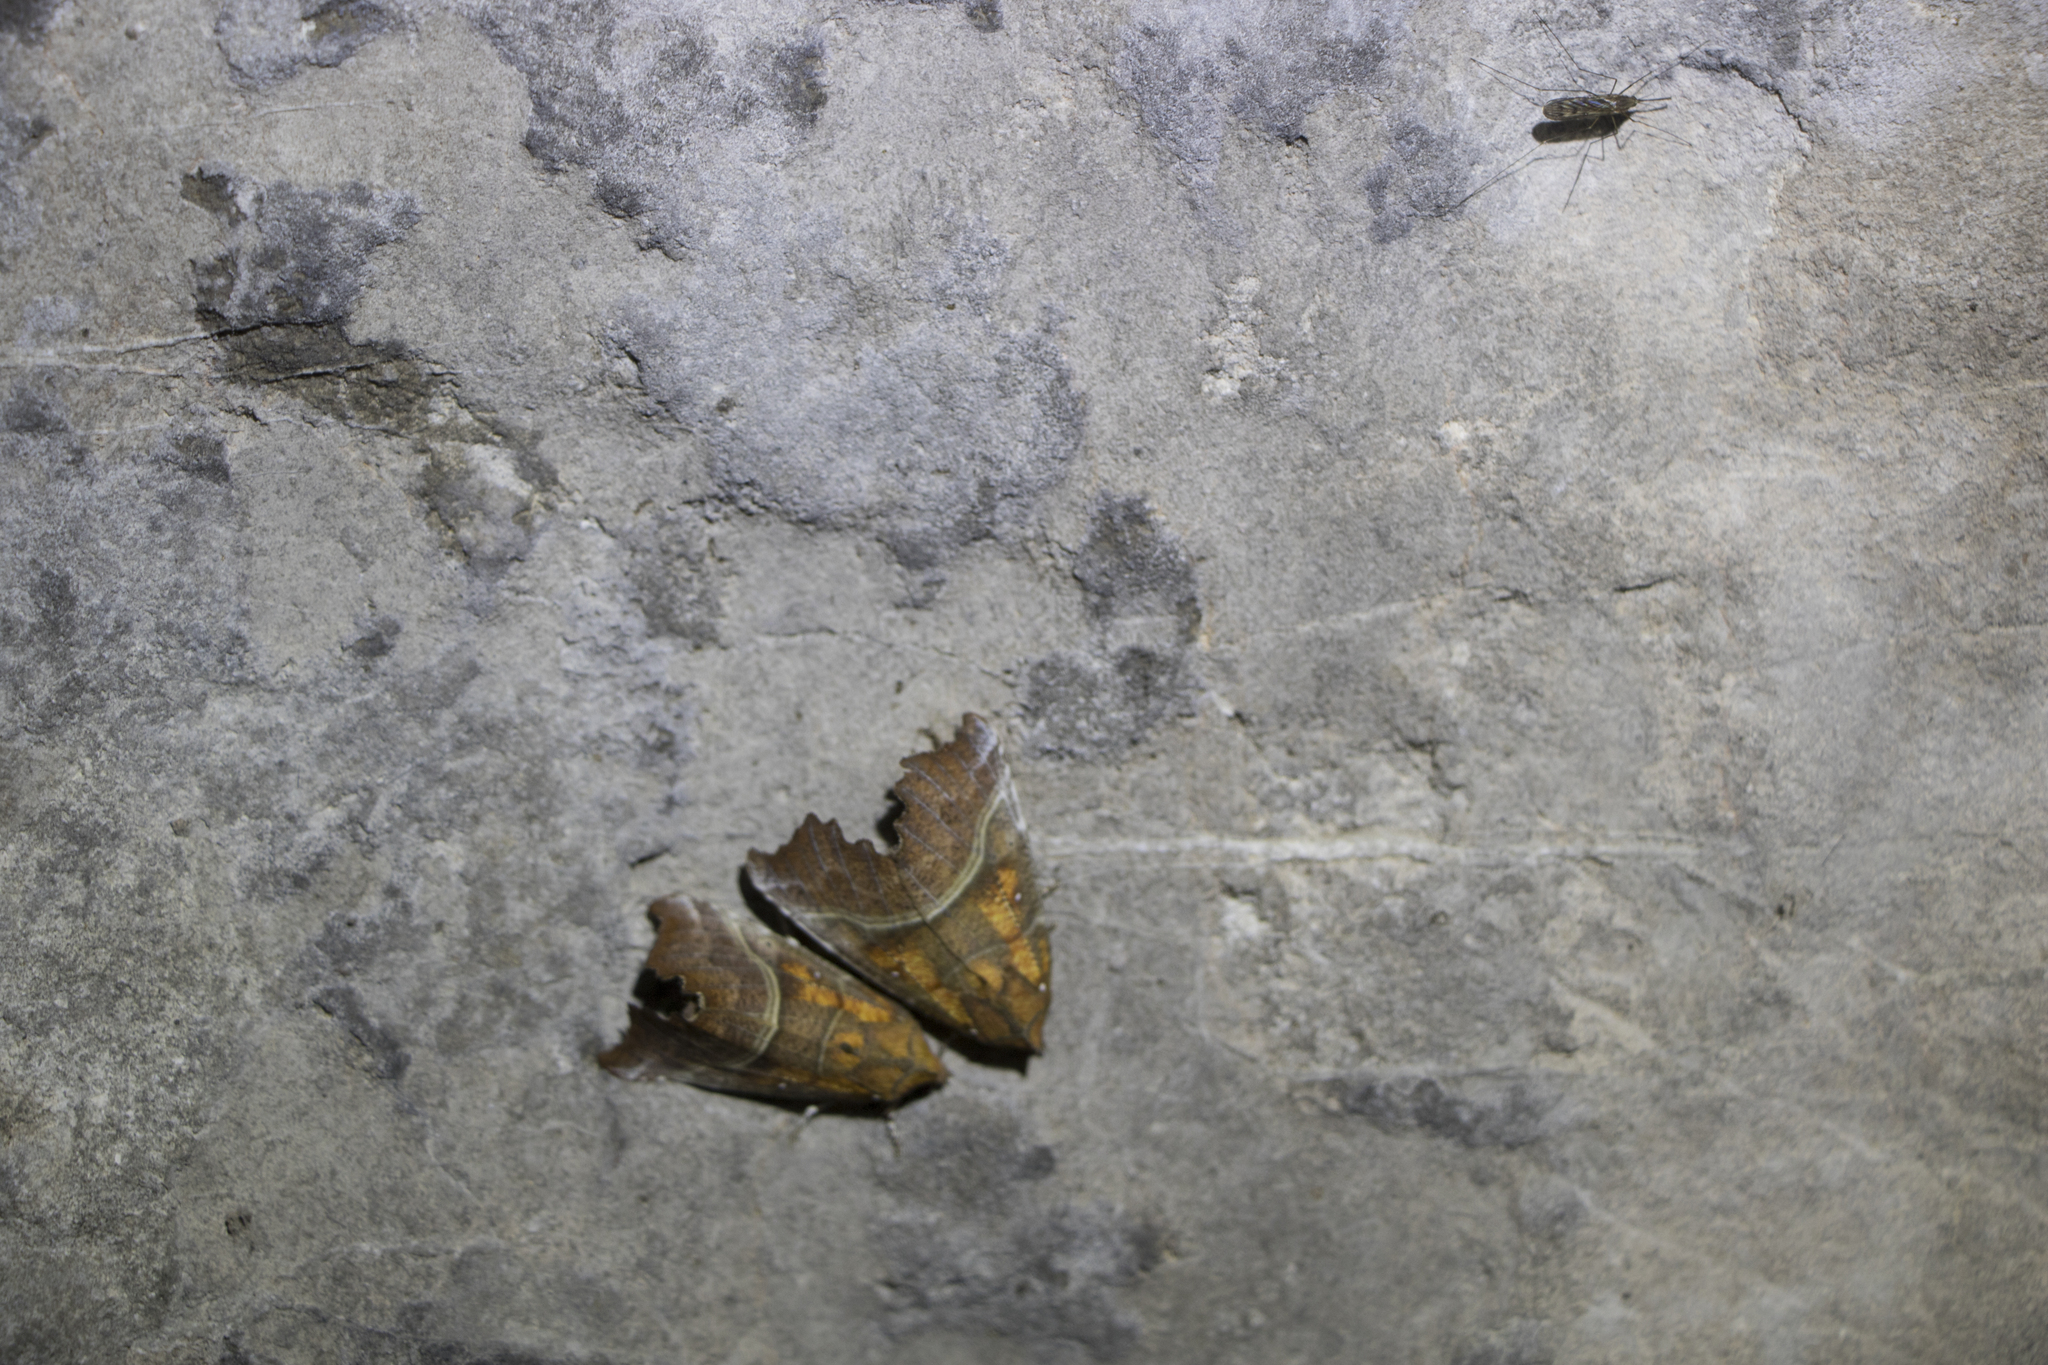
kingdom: Animalia
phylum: Arthropoda
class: Insecta
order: Lepidoptera
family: Erebidae
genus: Scoliopteryx
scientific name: Scoliopteryx libatrix
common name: Herald
